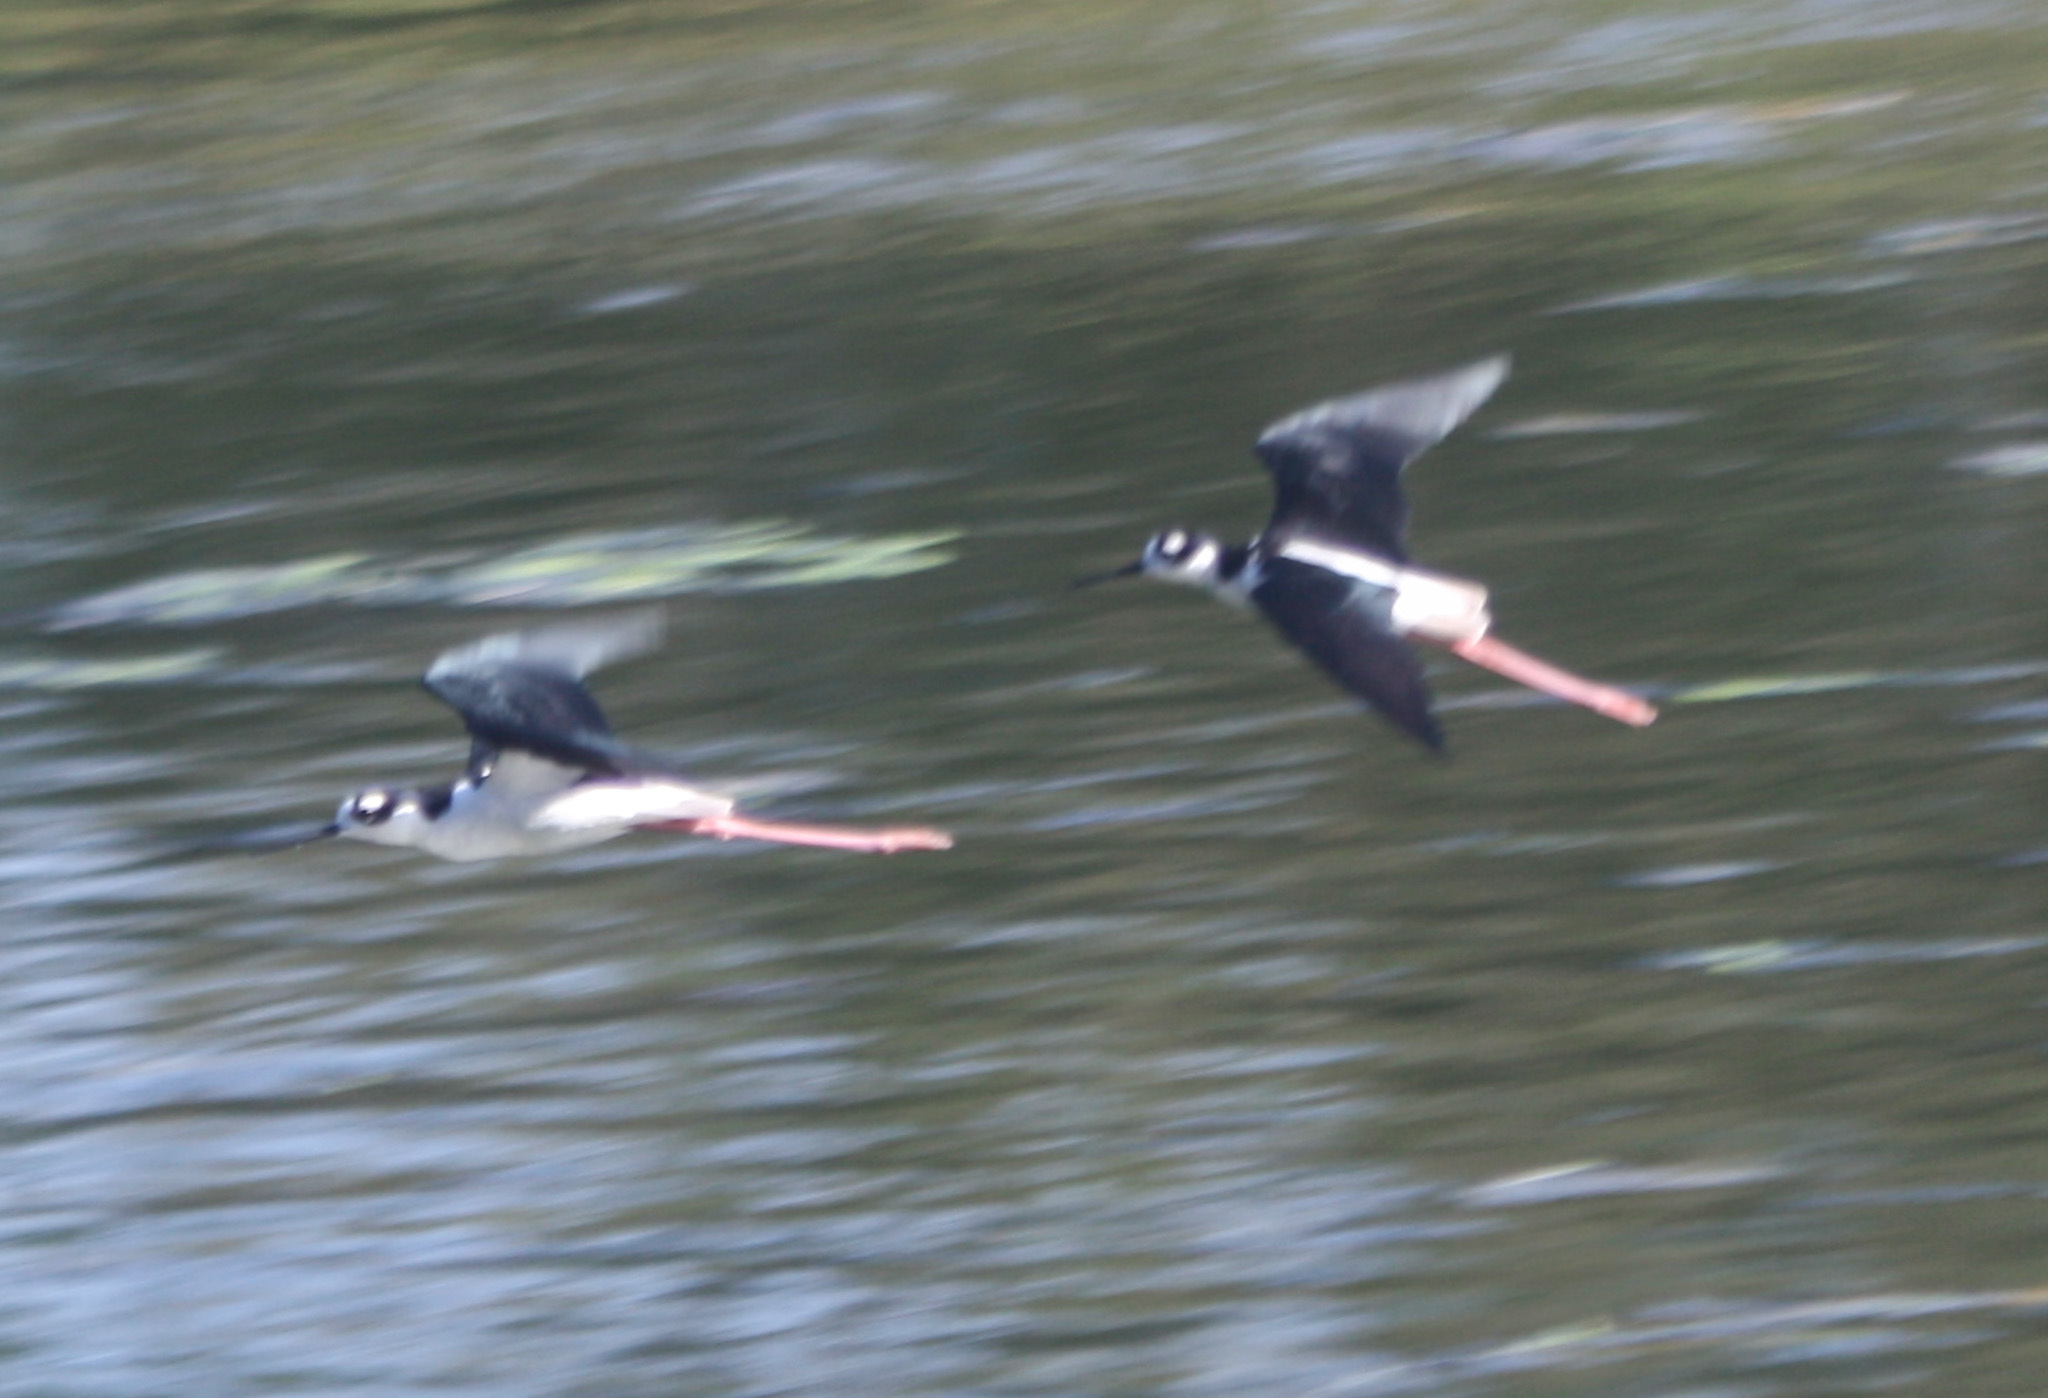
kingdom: Animalia
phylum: Chordata
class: Aves
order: Charadriiformes
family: Recurvirostridae
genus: Himantopus
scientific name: Himantopus mexicanus
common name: Black-necked stilt
